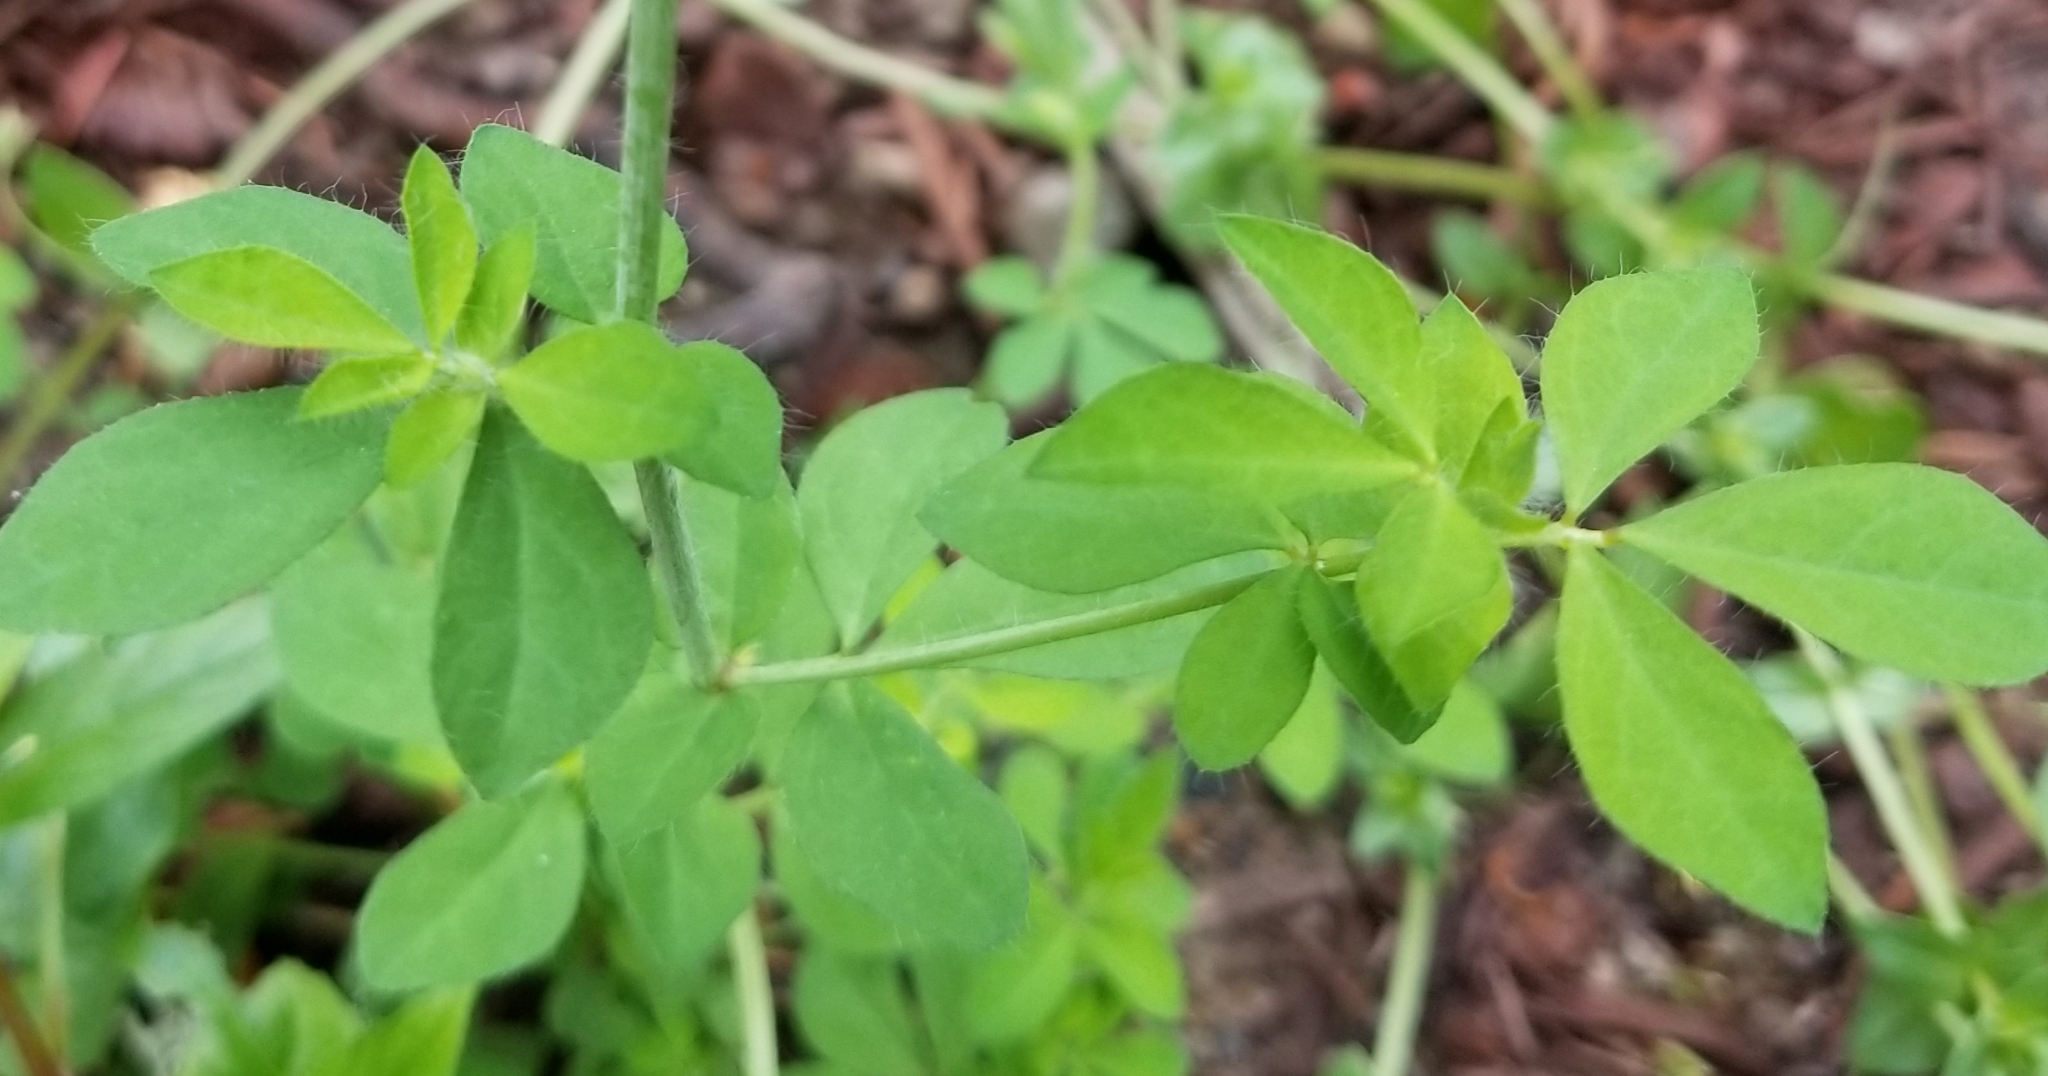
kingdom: Plantae
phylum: Tracheophyta
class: Magnoliopsida
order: Fabales
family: Fabaceae
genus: Lotus
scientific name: Lotus pedunculatus
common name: Greater birdsfoot-trefoil
